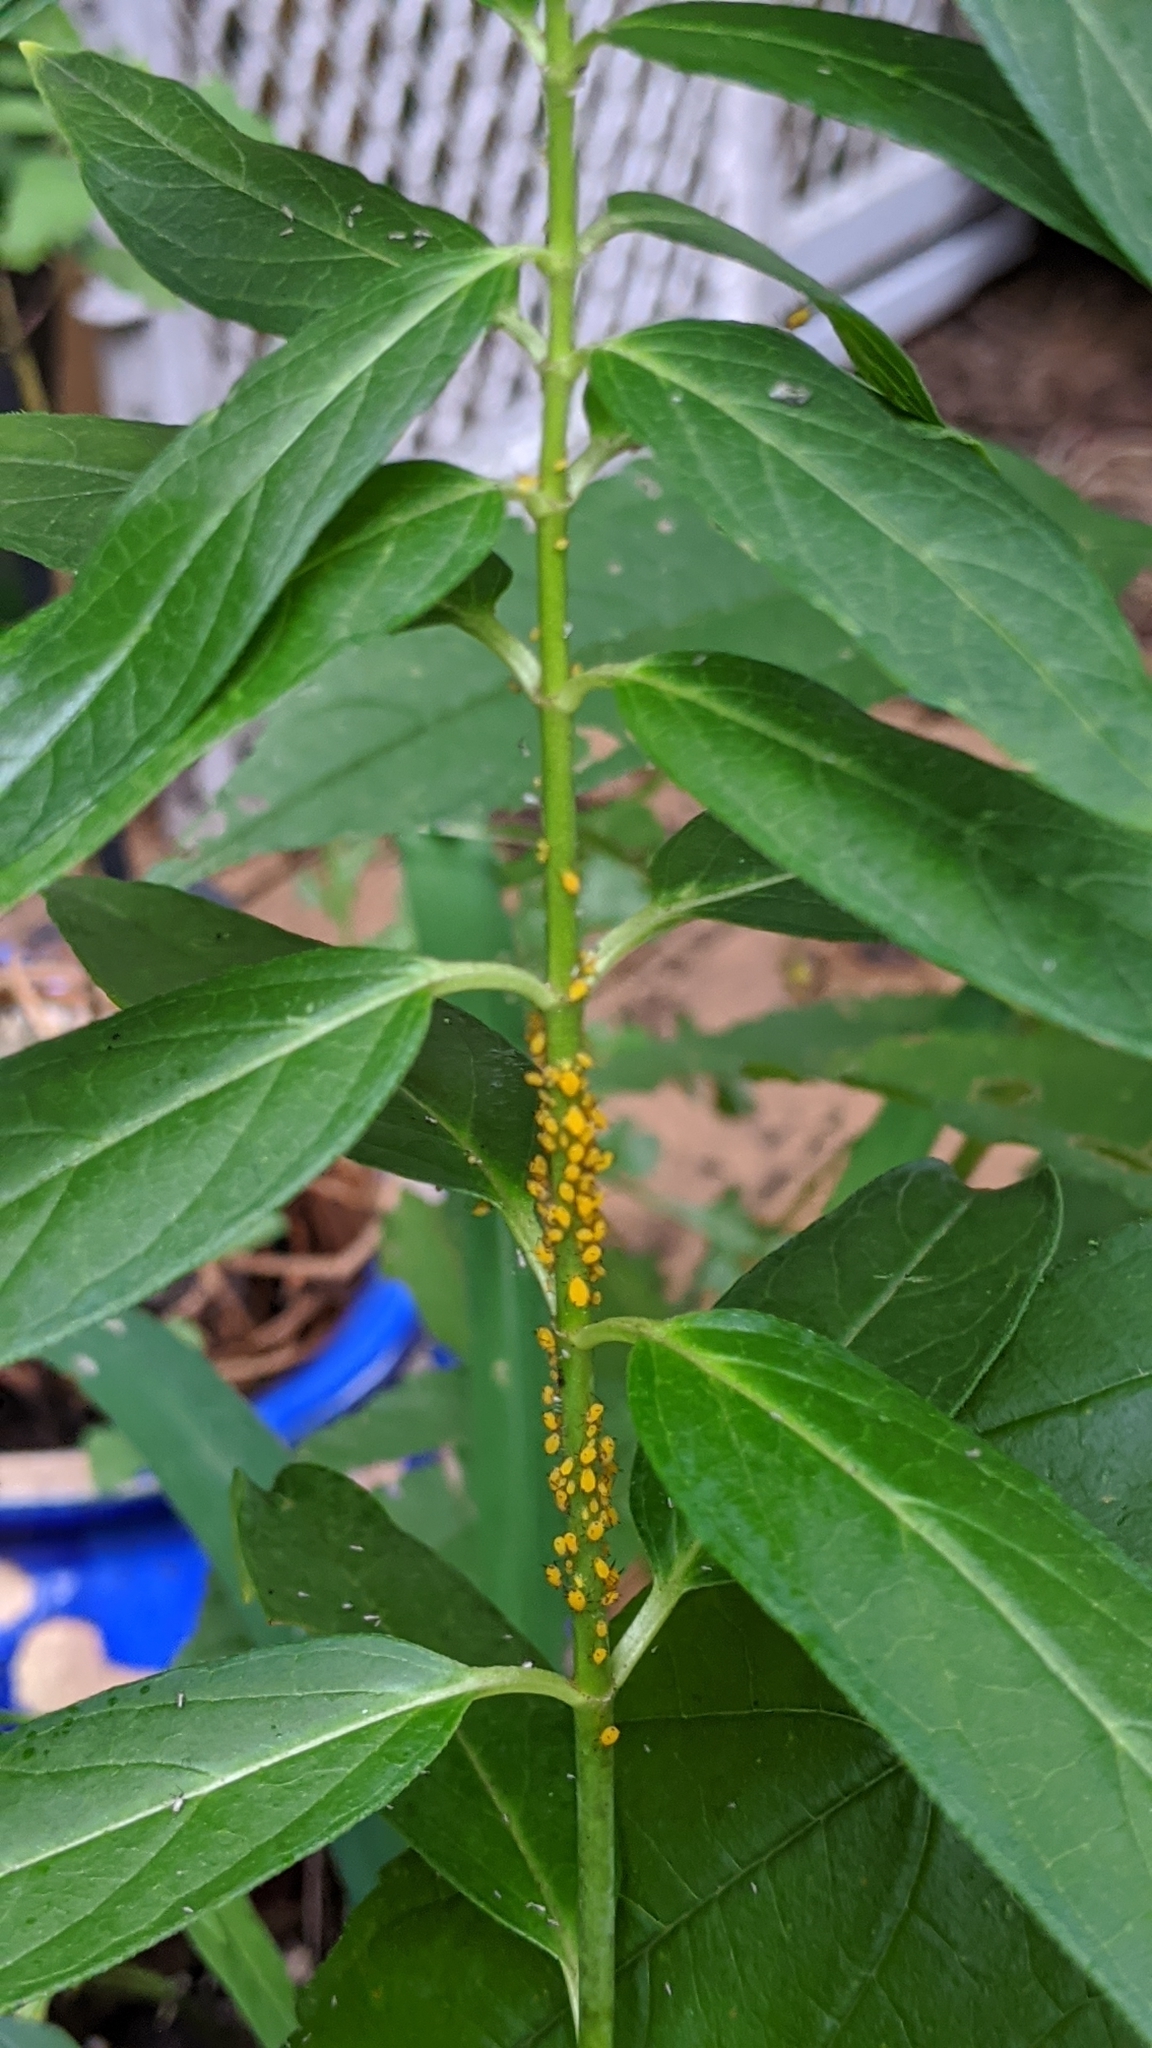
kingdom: Animalia
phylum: Arthropoda
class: Insecta
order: Hemiptera
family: Aphididae
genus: Aphis
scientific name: Aphis nerii
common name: Oleander aphid
